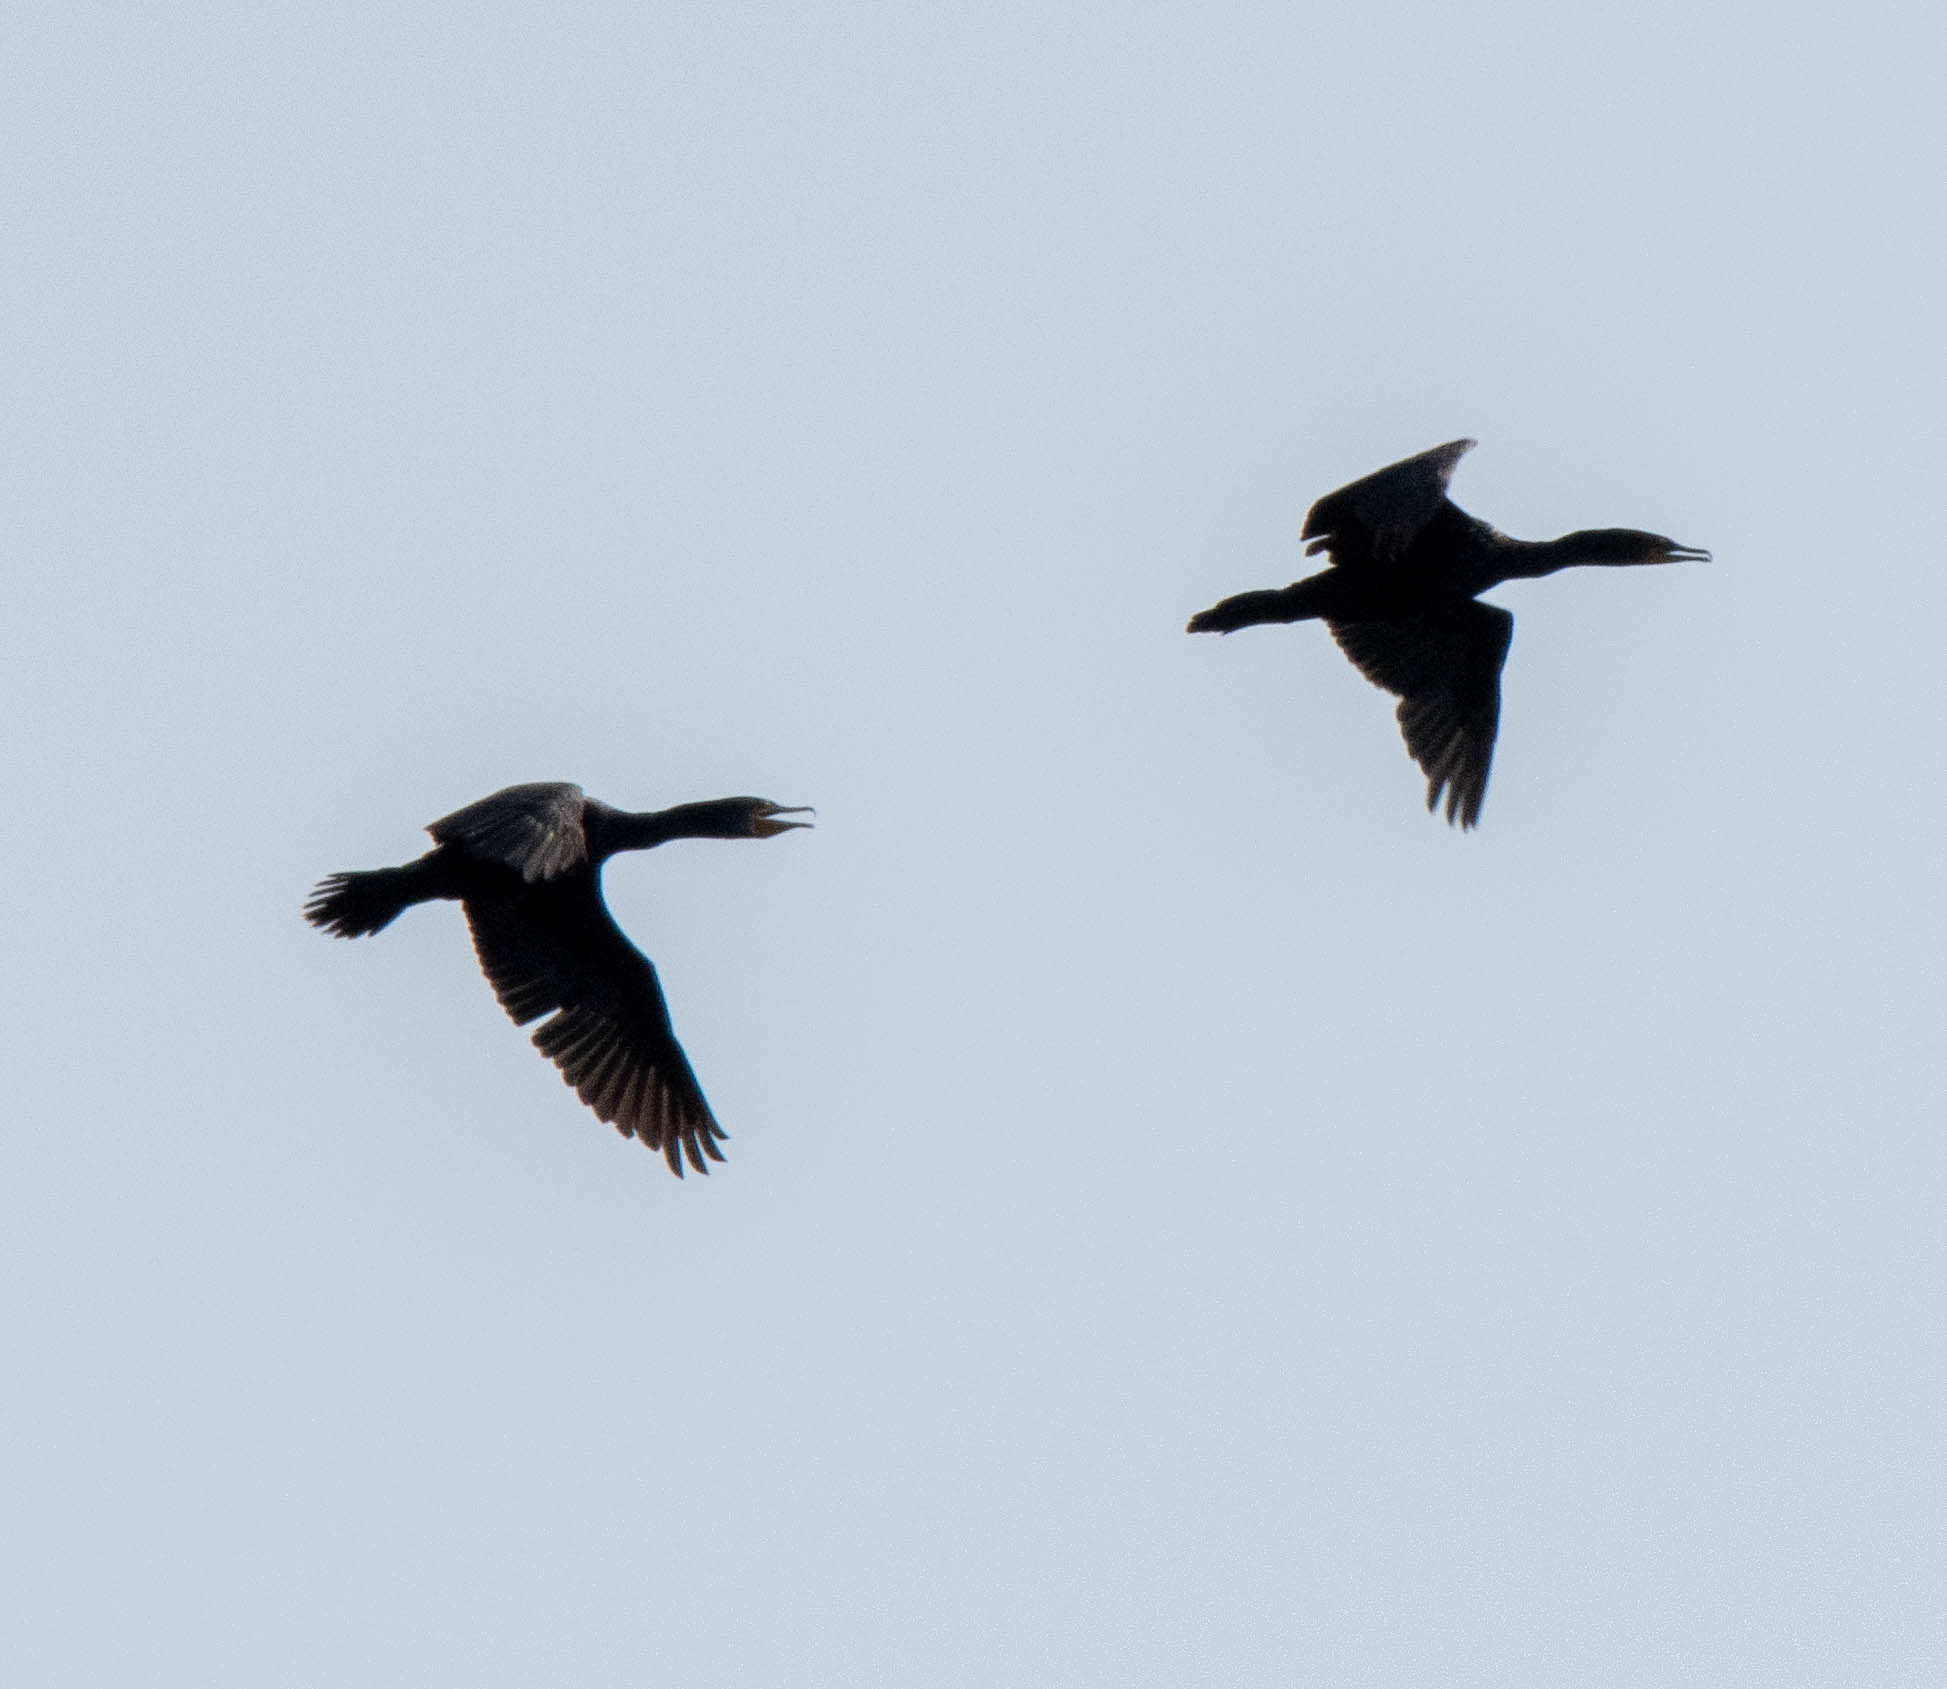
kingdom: Animalia
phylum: Chordata
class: Aves
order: Suliformes
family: Phalacrocoracidae
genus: Phalacrocorax
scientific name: Phalacrocorax auritus
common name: Double-crested cormorant
